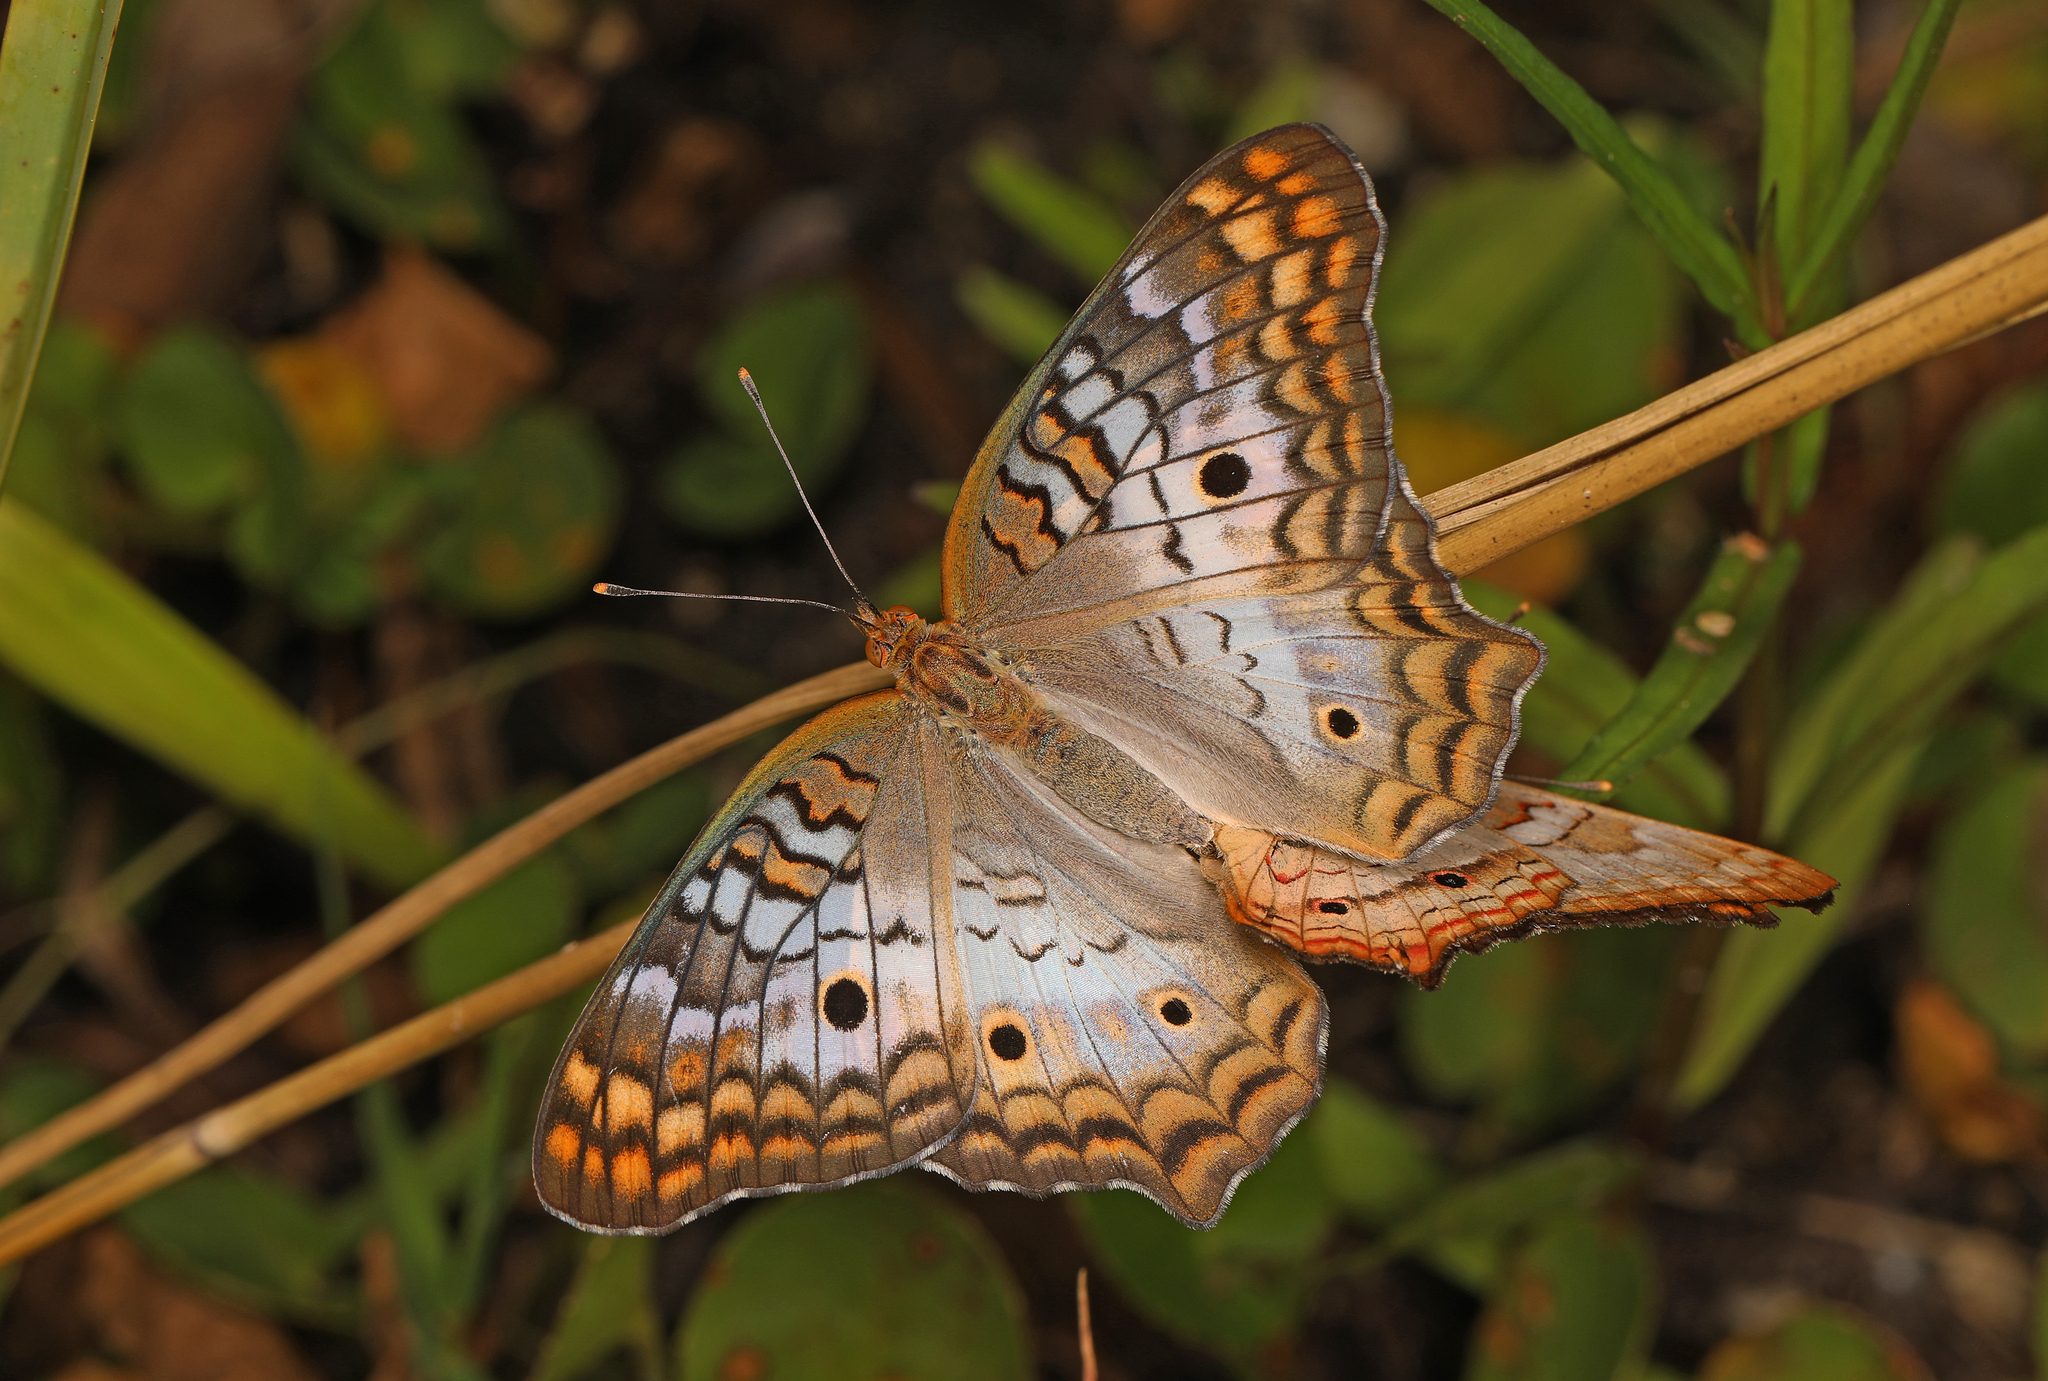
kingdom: Animalia
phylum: Arthropoda
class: Insecta
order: Lepidoptera
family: Nymphalidae
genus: Anartia
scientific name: Anartia jatrophae
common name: White peacock
